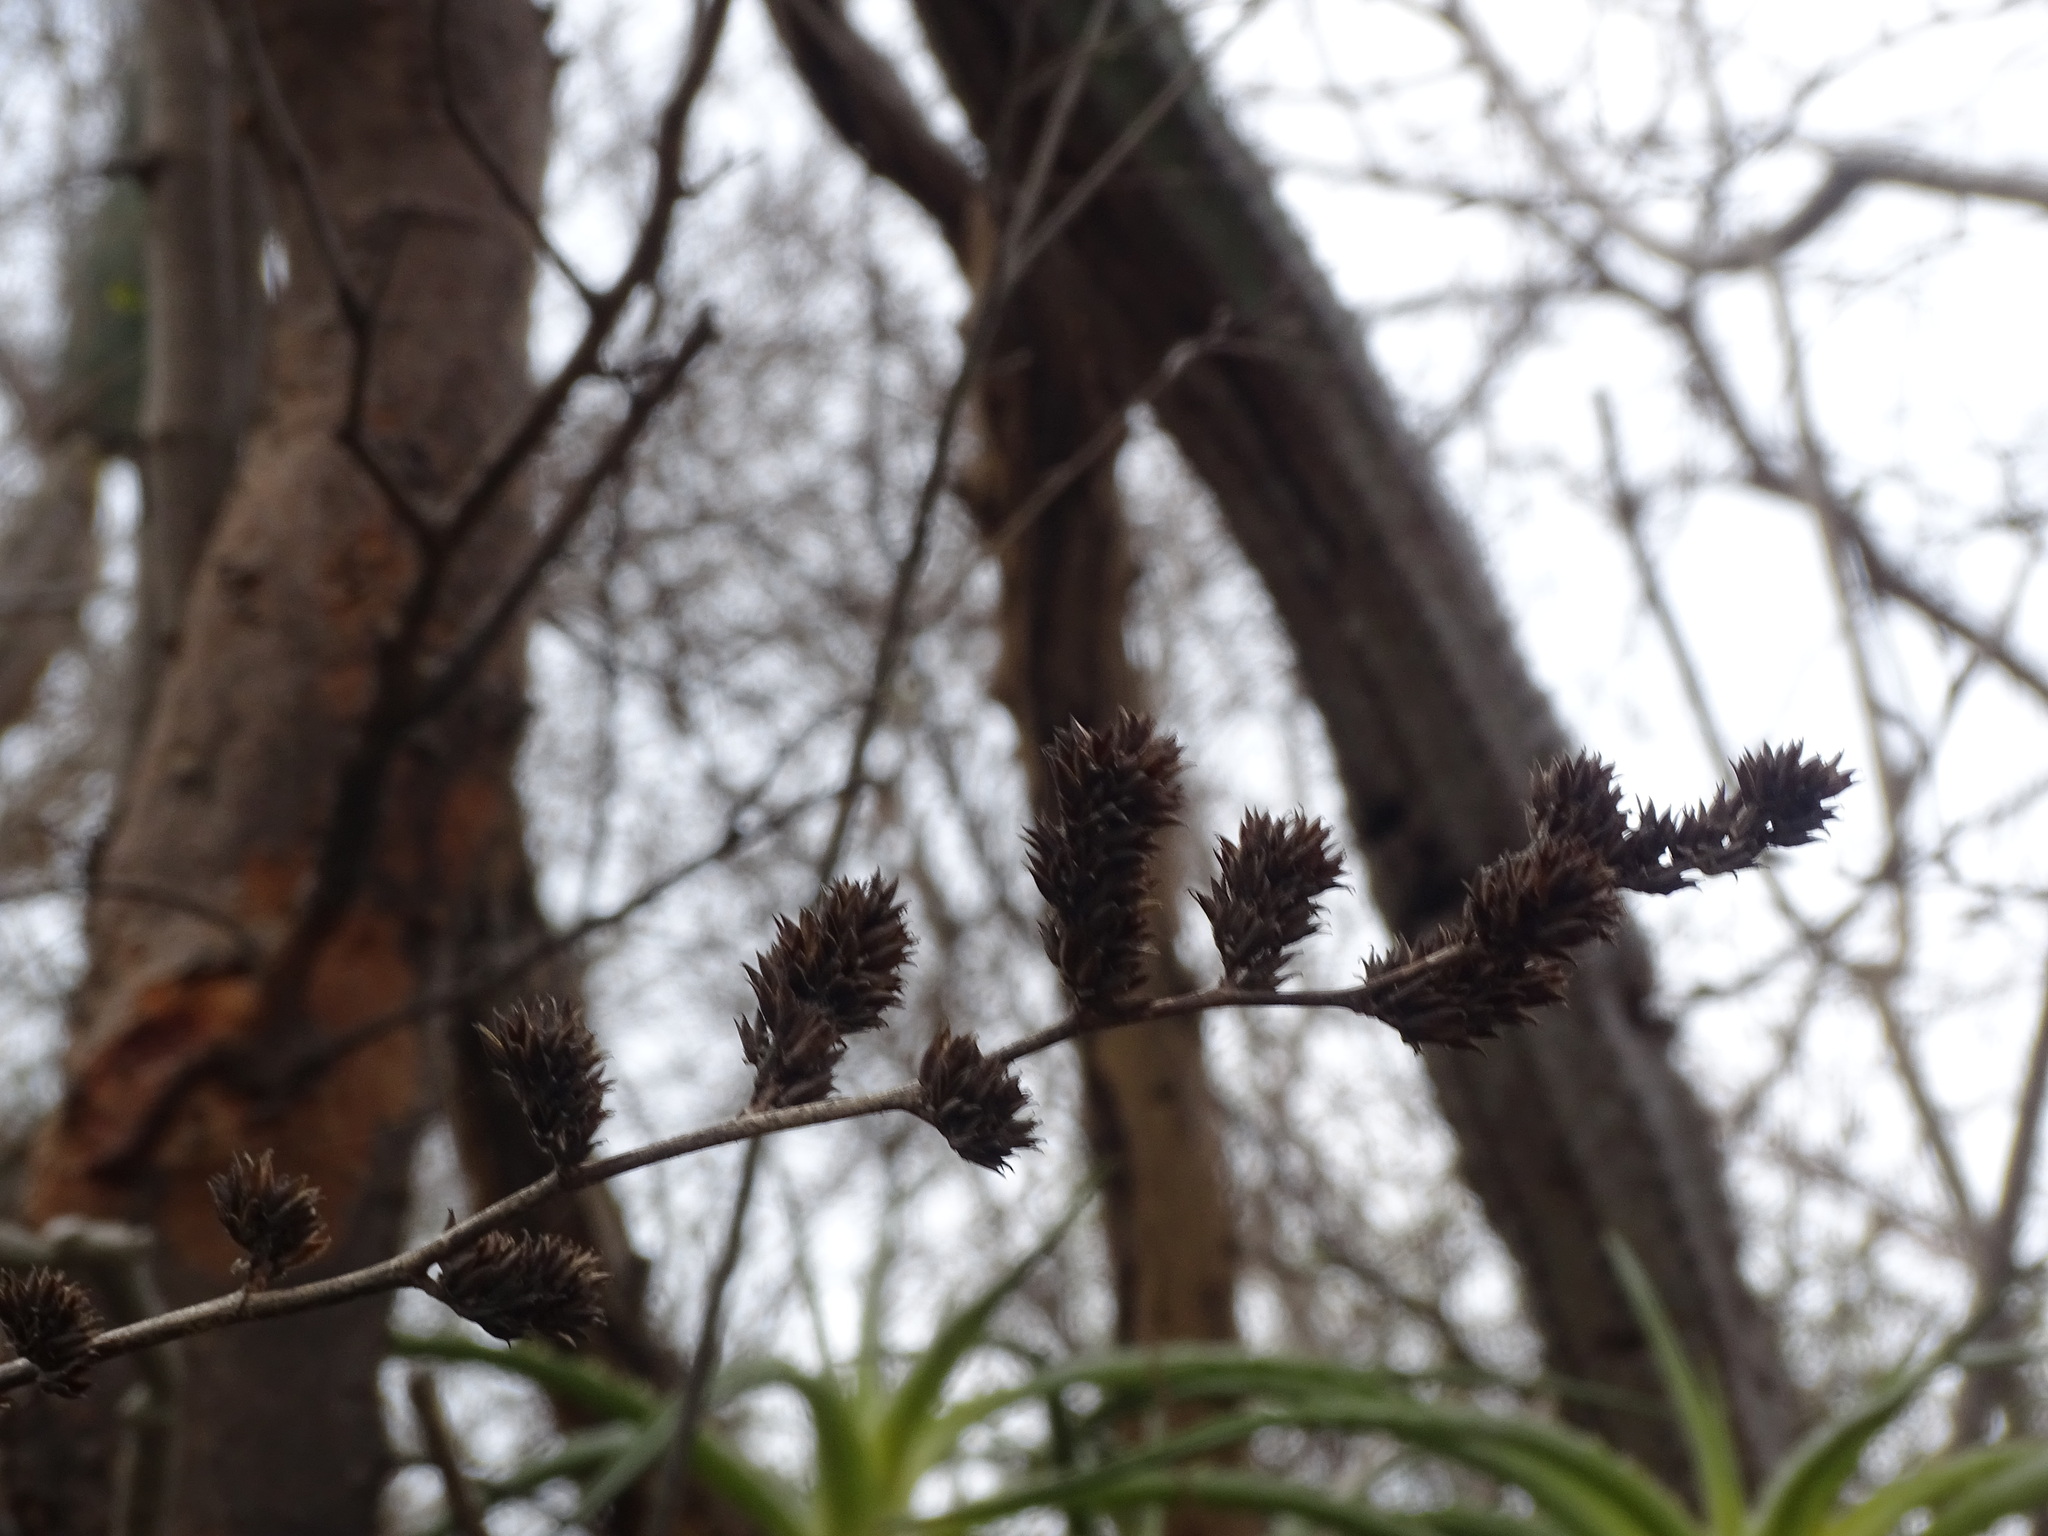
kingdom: Plantae
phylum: Tracheophyta
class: Liliopsida
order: Poales
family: Bromeliaceae
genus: Hechtia
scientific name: Hechtia isthmusiana
